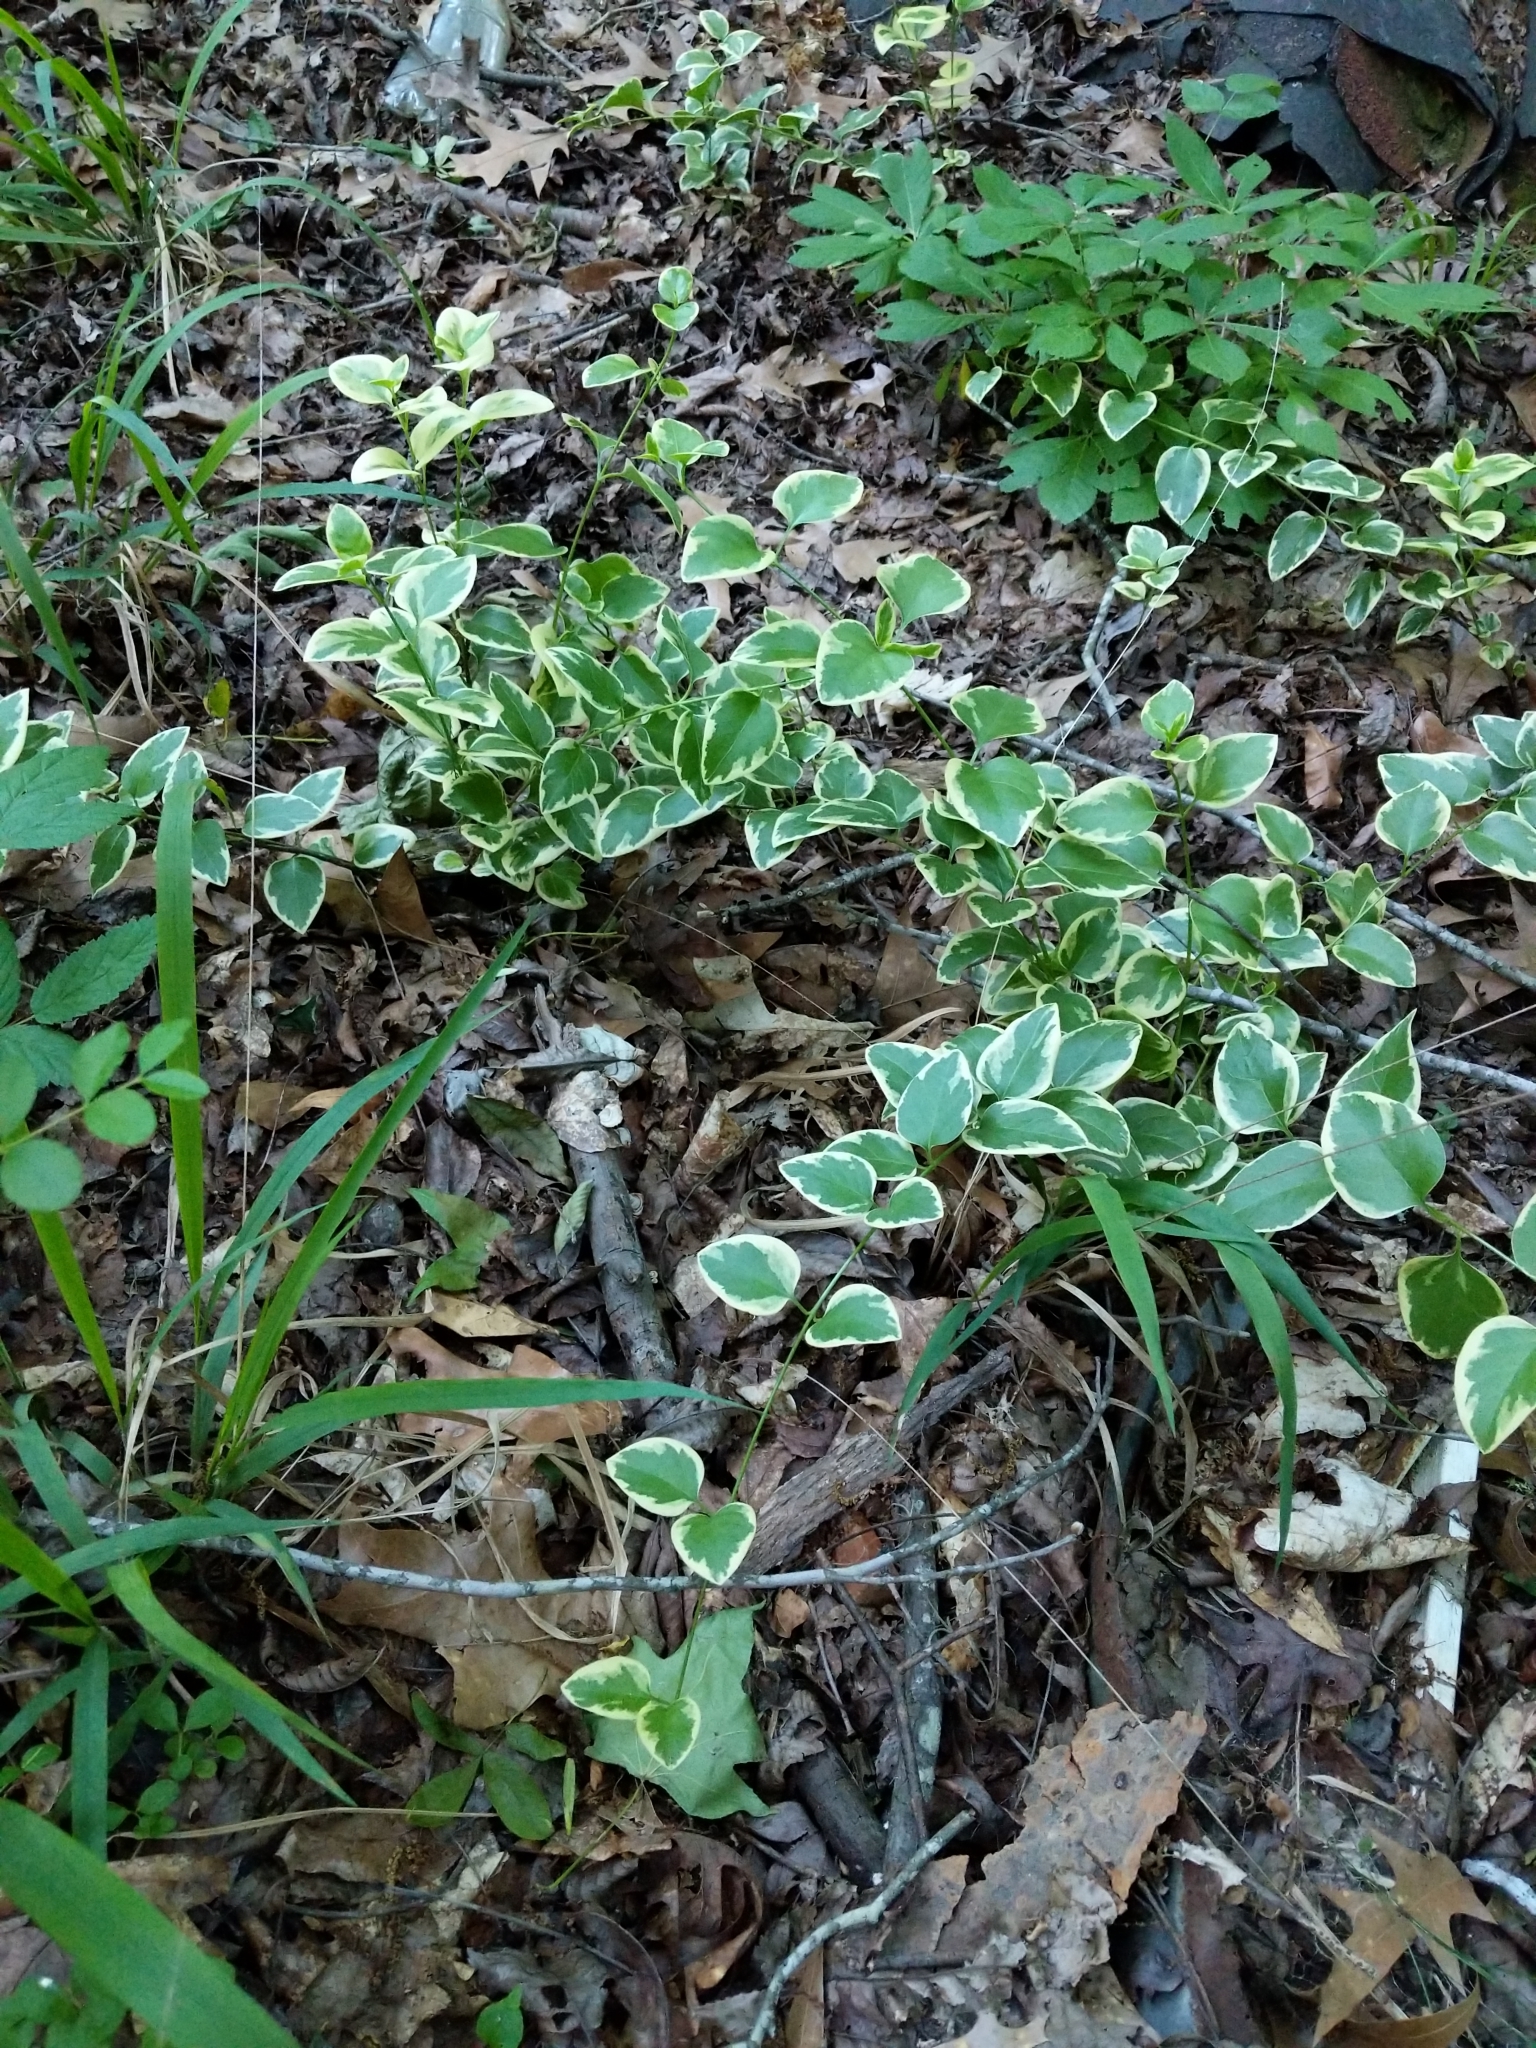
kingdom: Plantae
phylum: Tracheophyta
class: Magnoliopsida
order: Gentianales
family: Apocynaceae
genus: Vinca
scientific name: Vinca major
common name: Greater periwinkle
